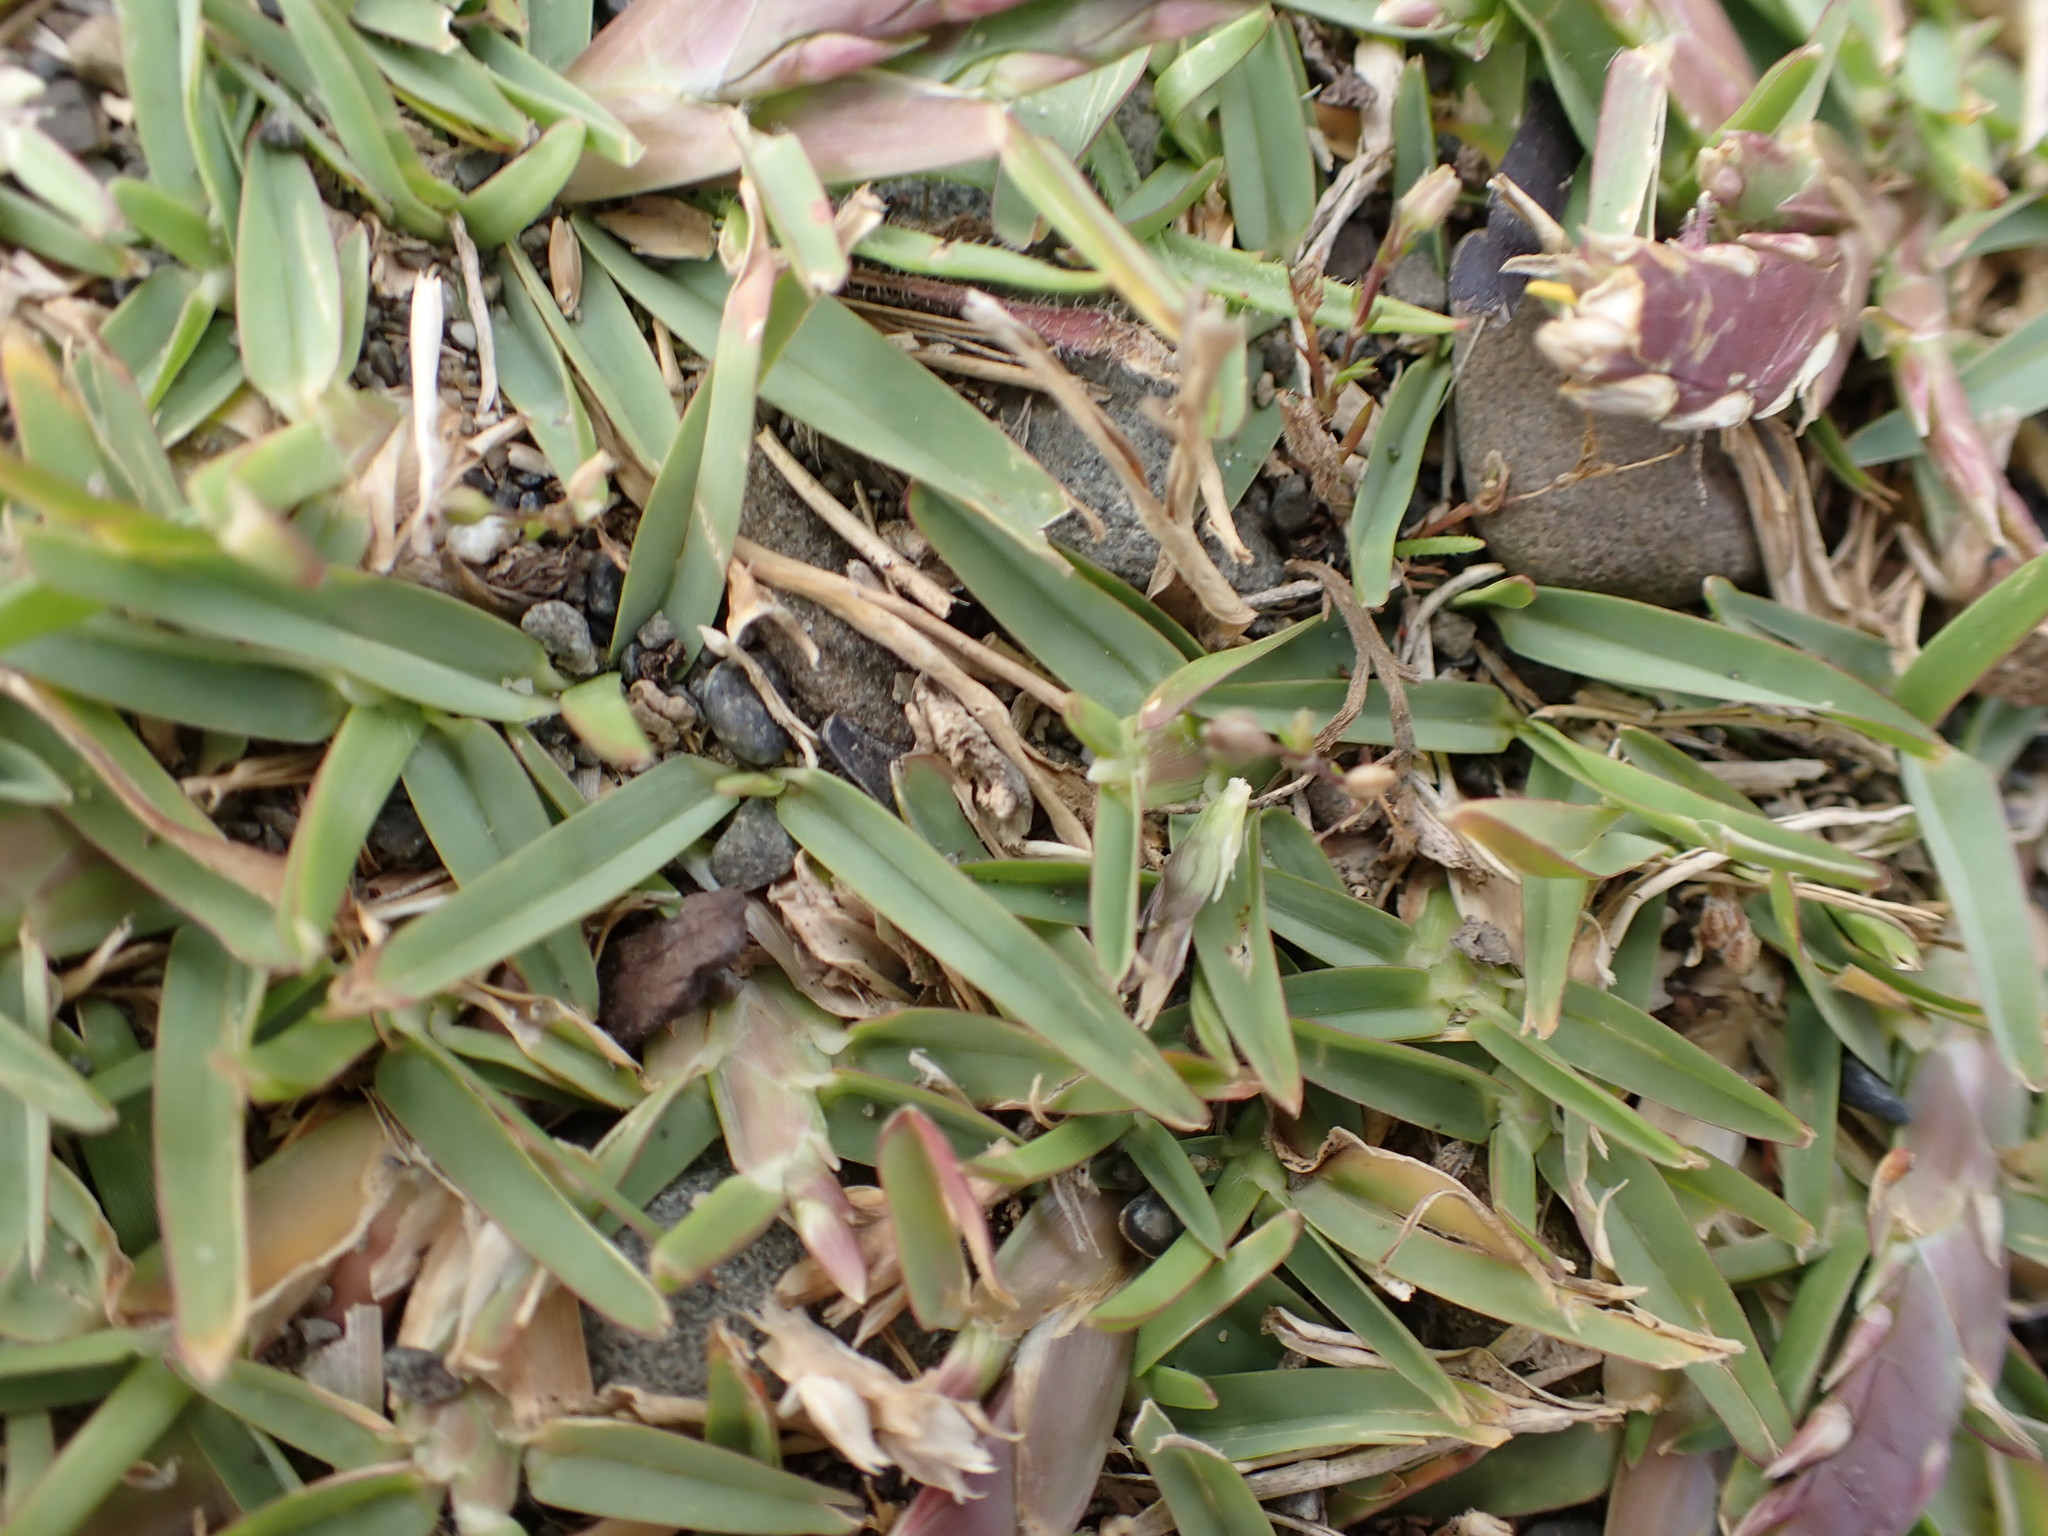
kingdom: Plantae
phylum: Tracheophyta
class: Liliopsida
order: Poales
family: Poaceae
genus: Stenotaphrum
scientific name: Stenotaphrum secundatum
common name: St. augustine grass
